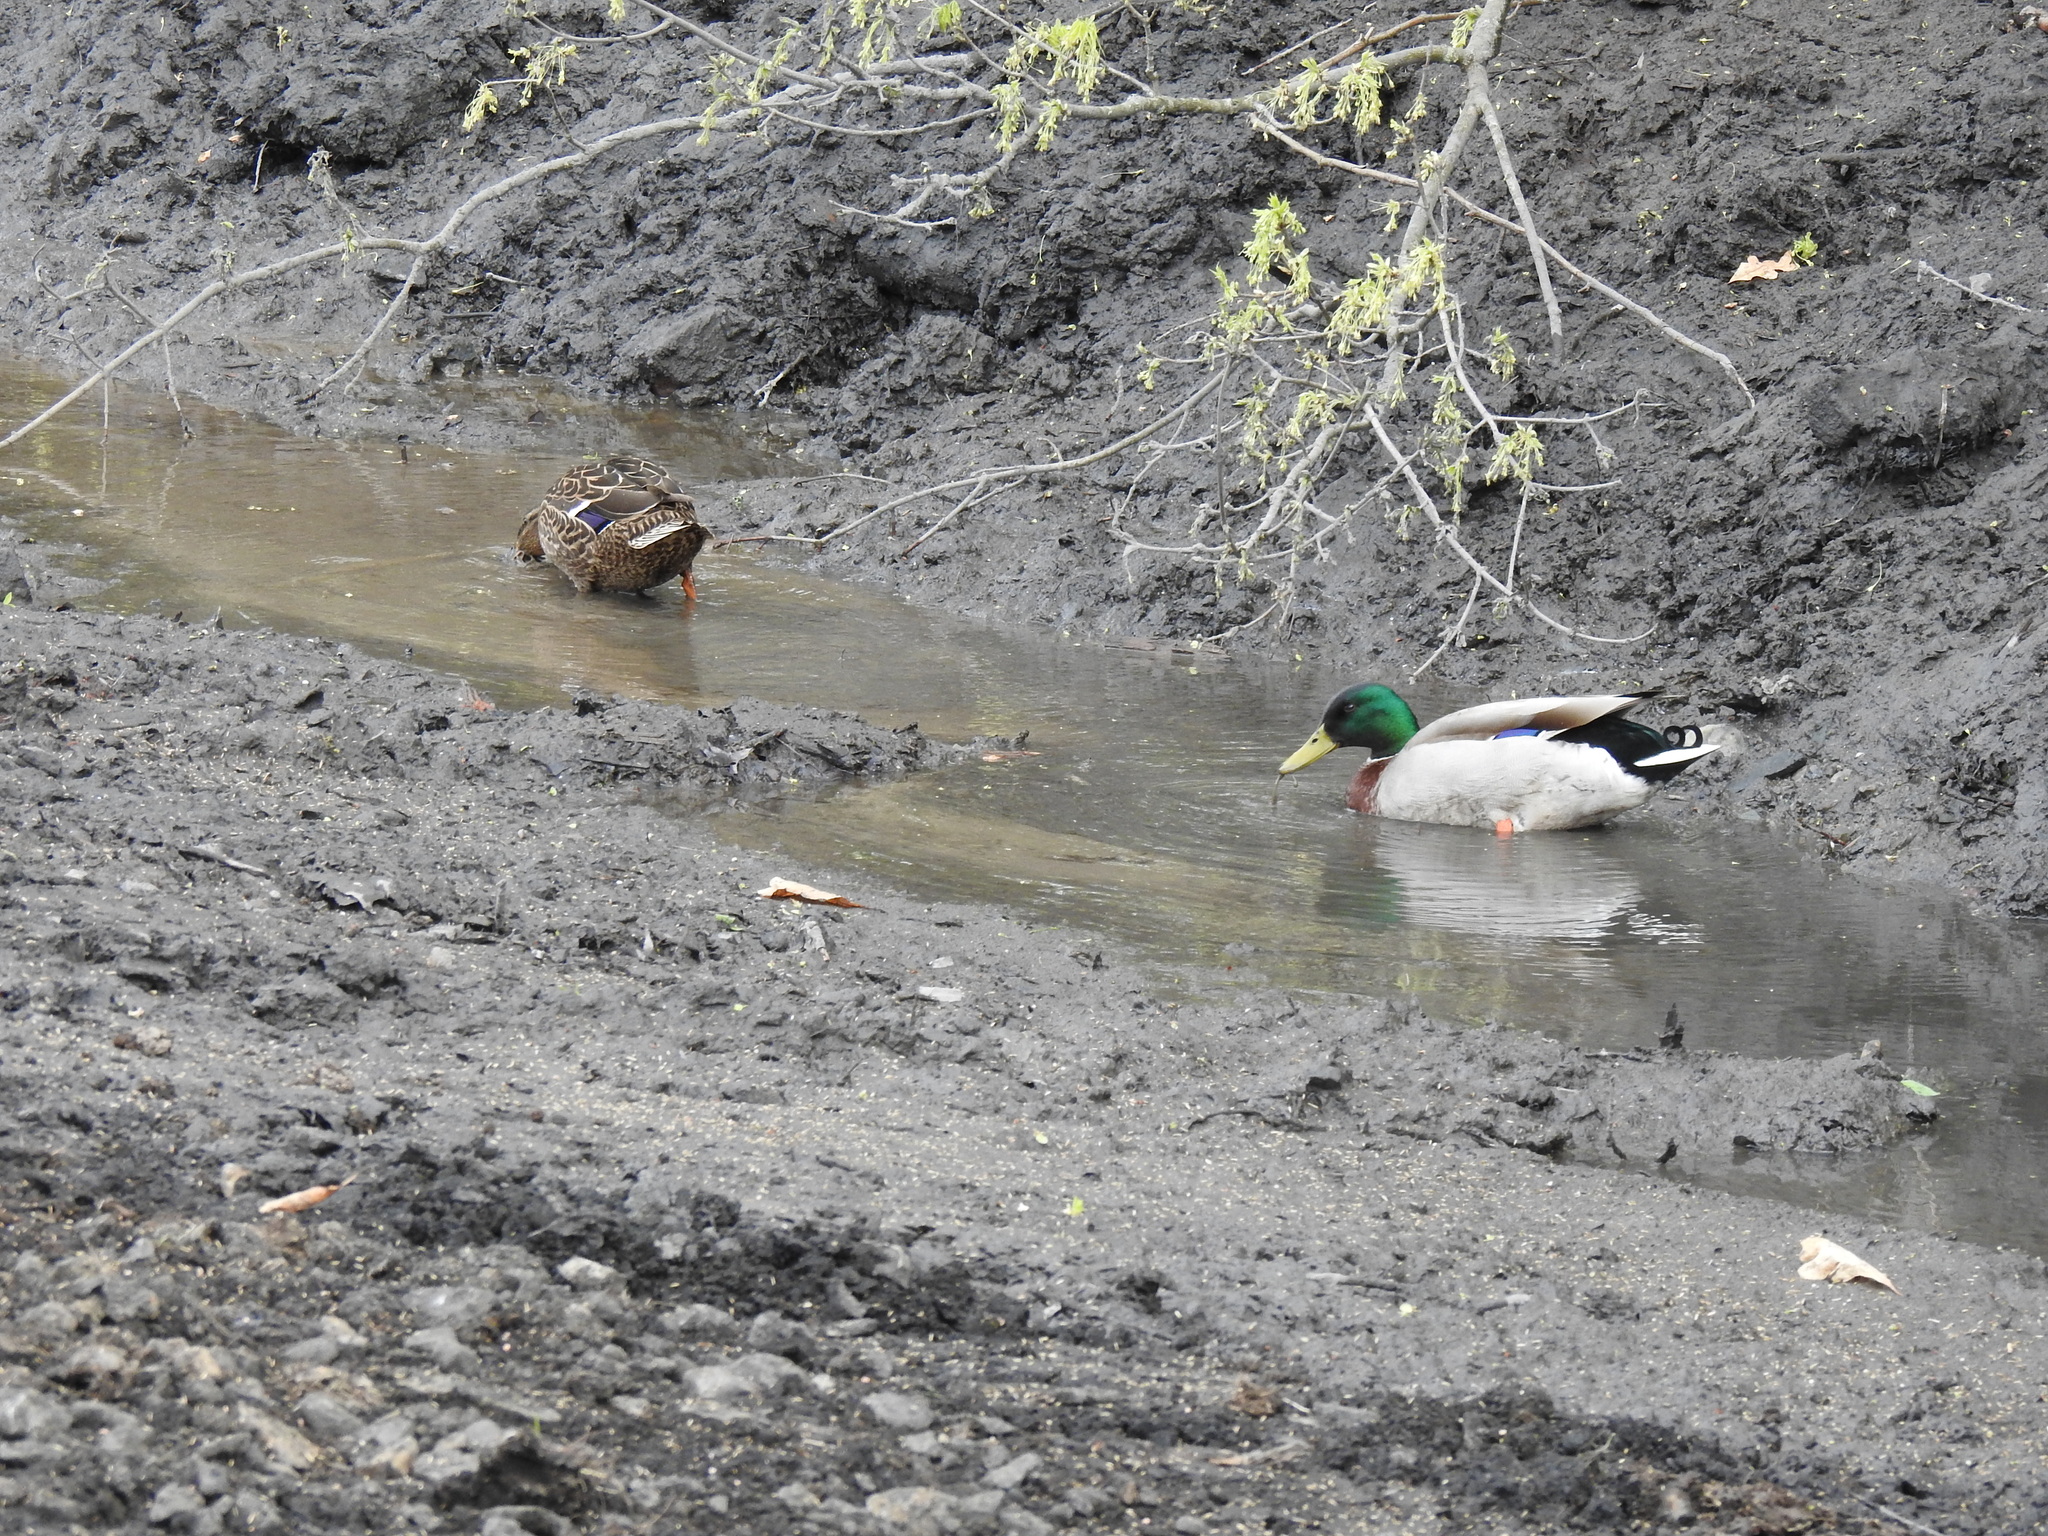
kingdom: Animalia
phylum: Chordata
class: Aves
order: Anseriformes
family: Anatidae
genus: Anas
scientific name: Anas platyrhynchos
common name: Mallard
